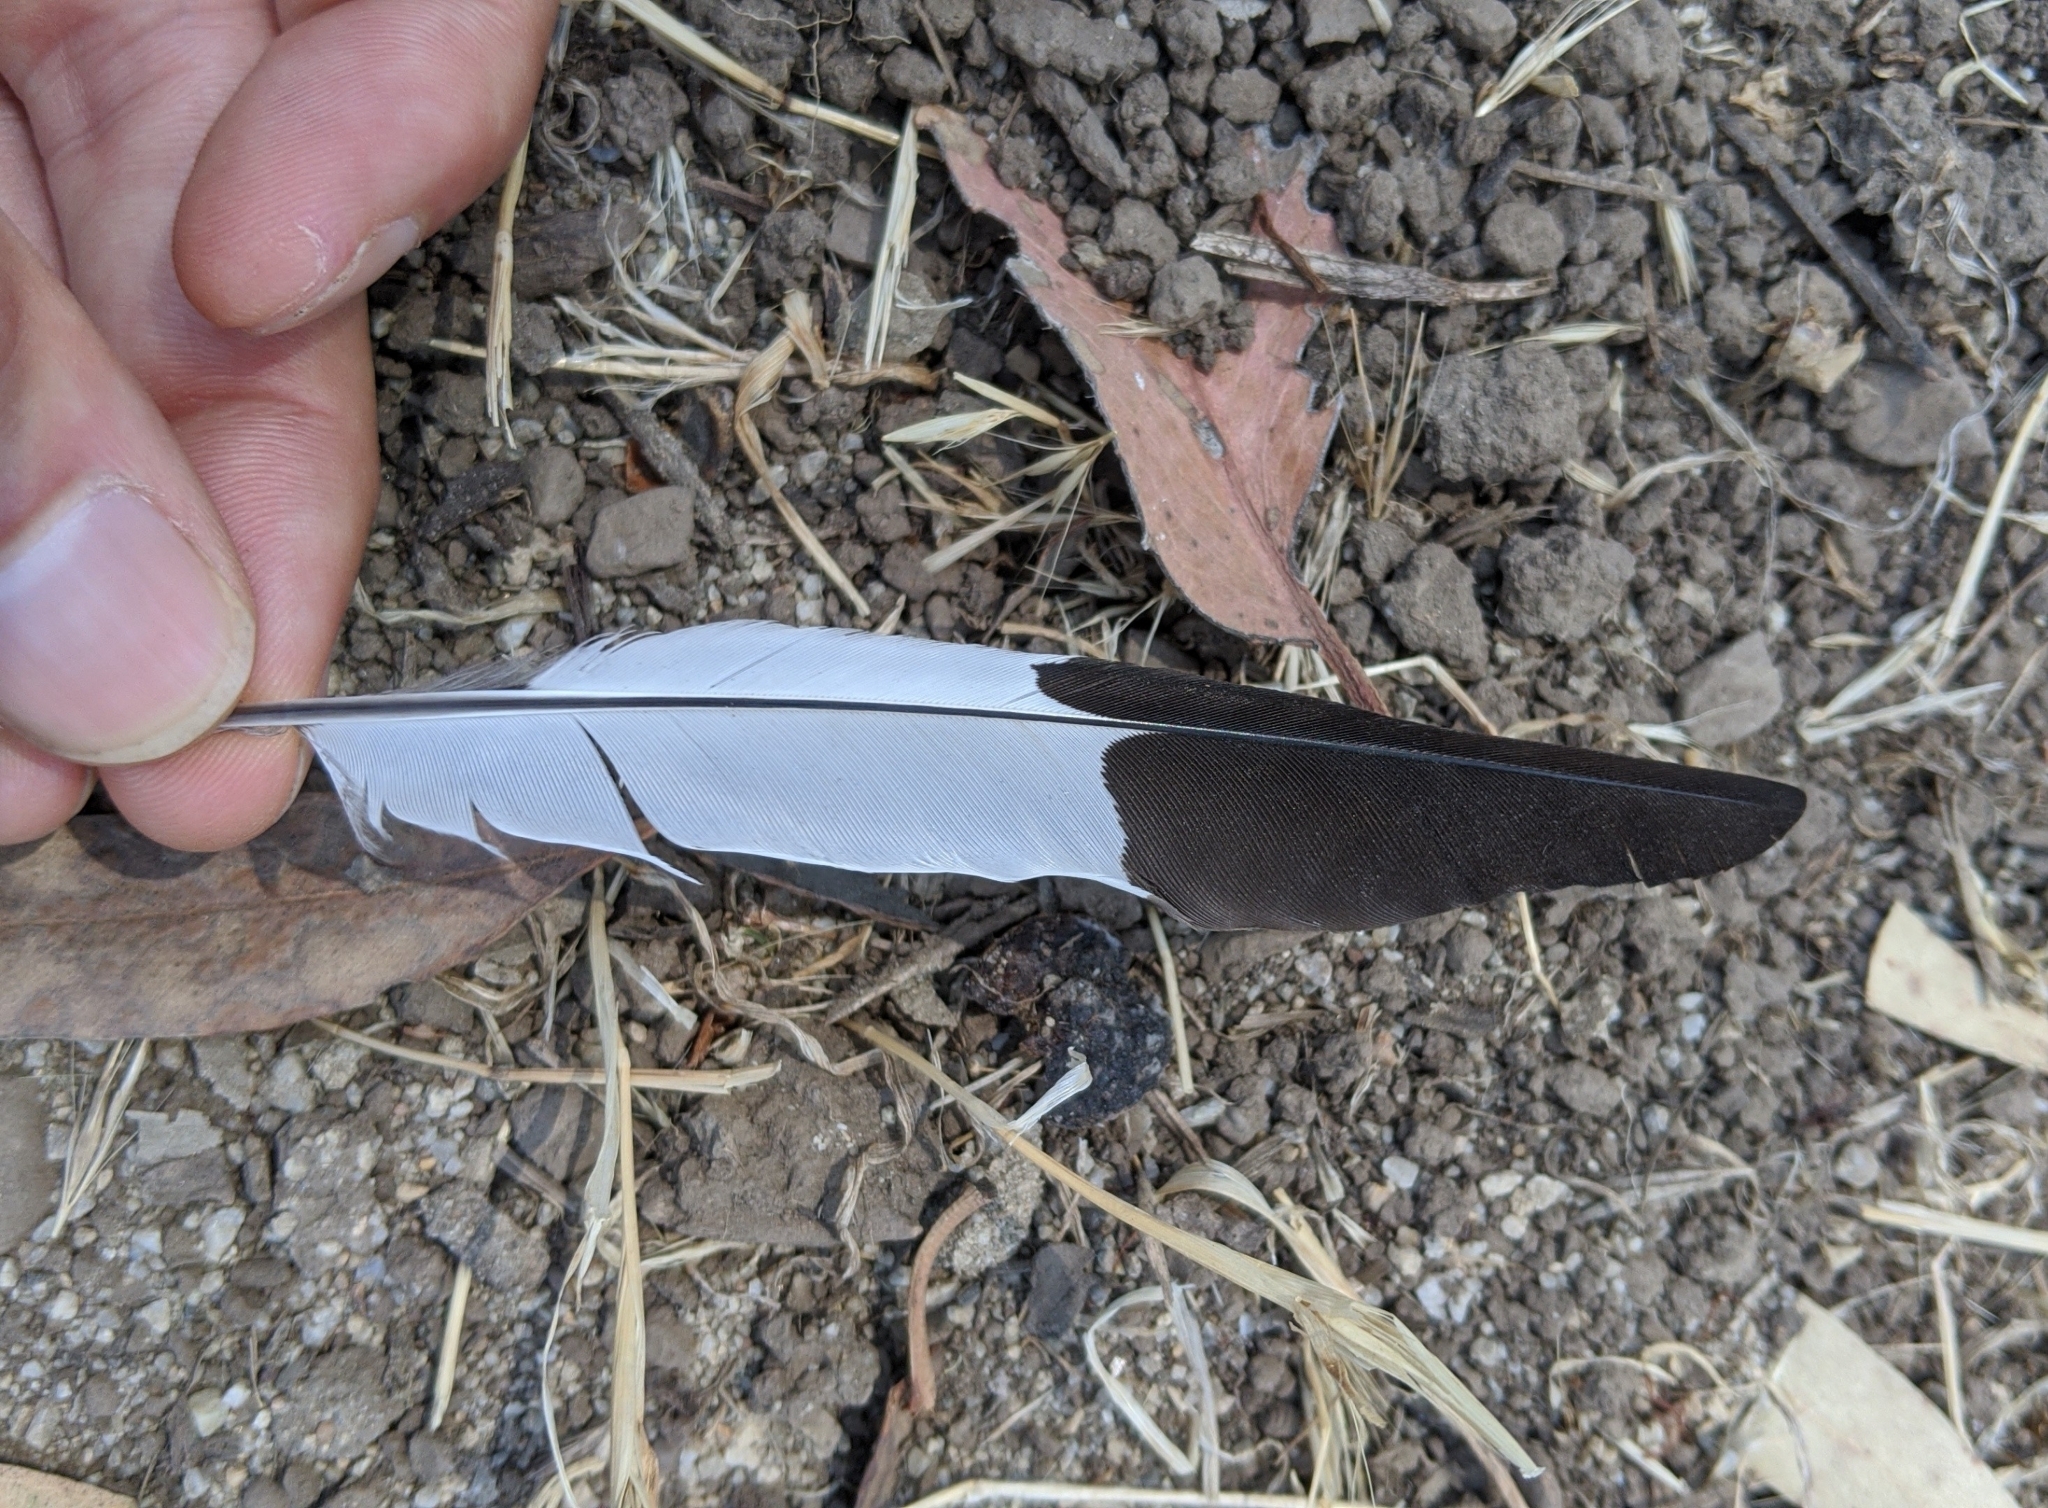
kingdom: Animalia
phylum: Chordata
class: Aves
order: Piciformes
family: Picidae
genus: Melanerpes
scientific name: Melanerpes formicivorus
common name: Acorn woodpecker
